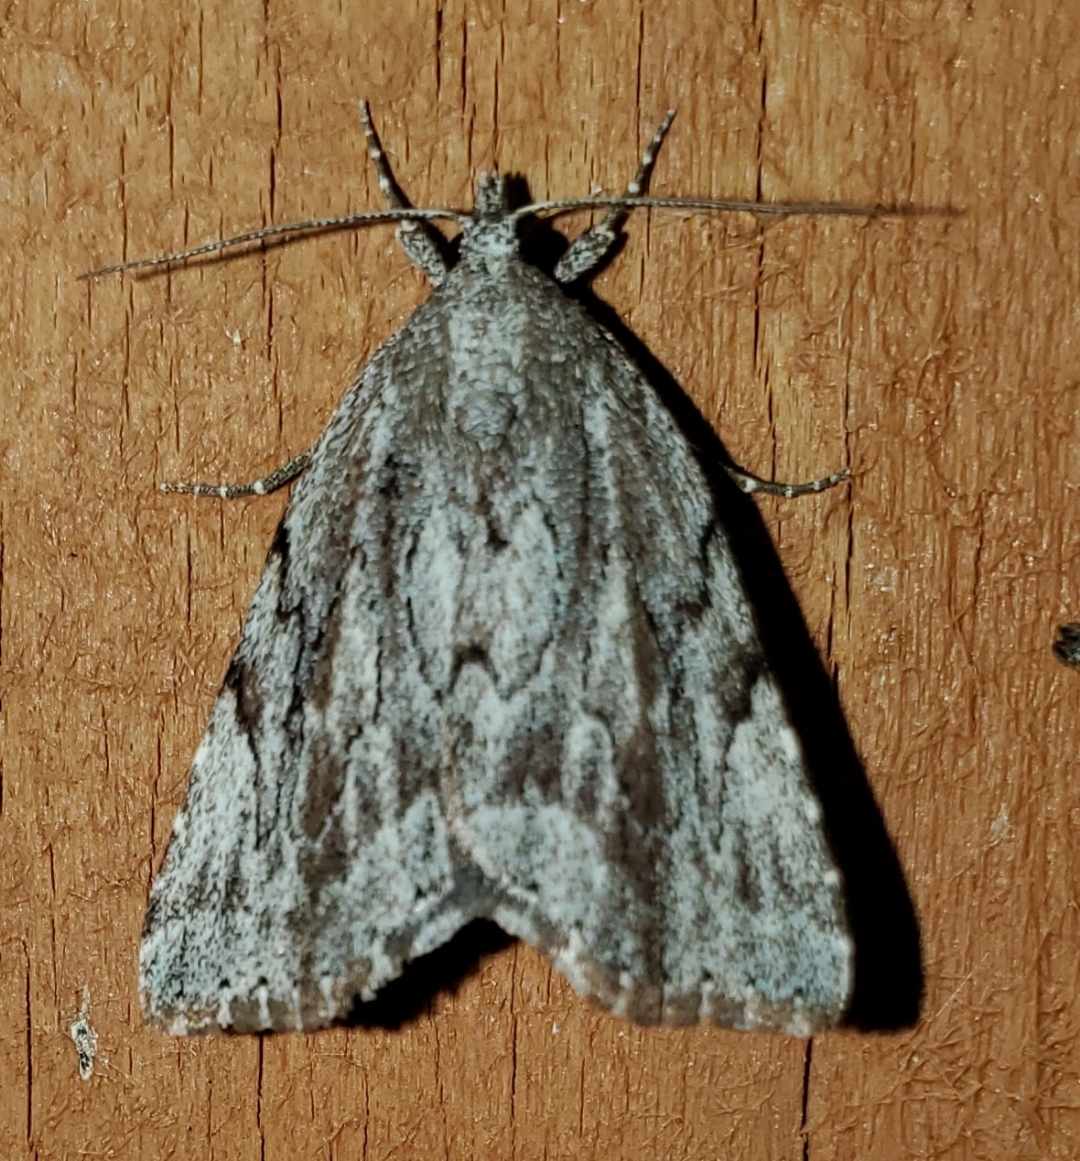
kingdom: Animalia
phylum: Arthropoda
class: Insecta
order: Lepidoptera
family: Erebidae
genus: Cutina
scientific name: Cutina albopunctella
